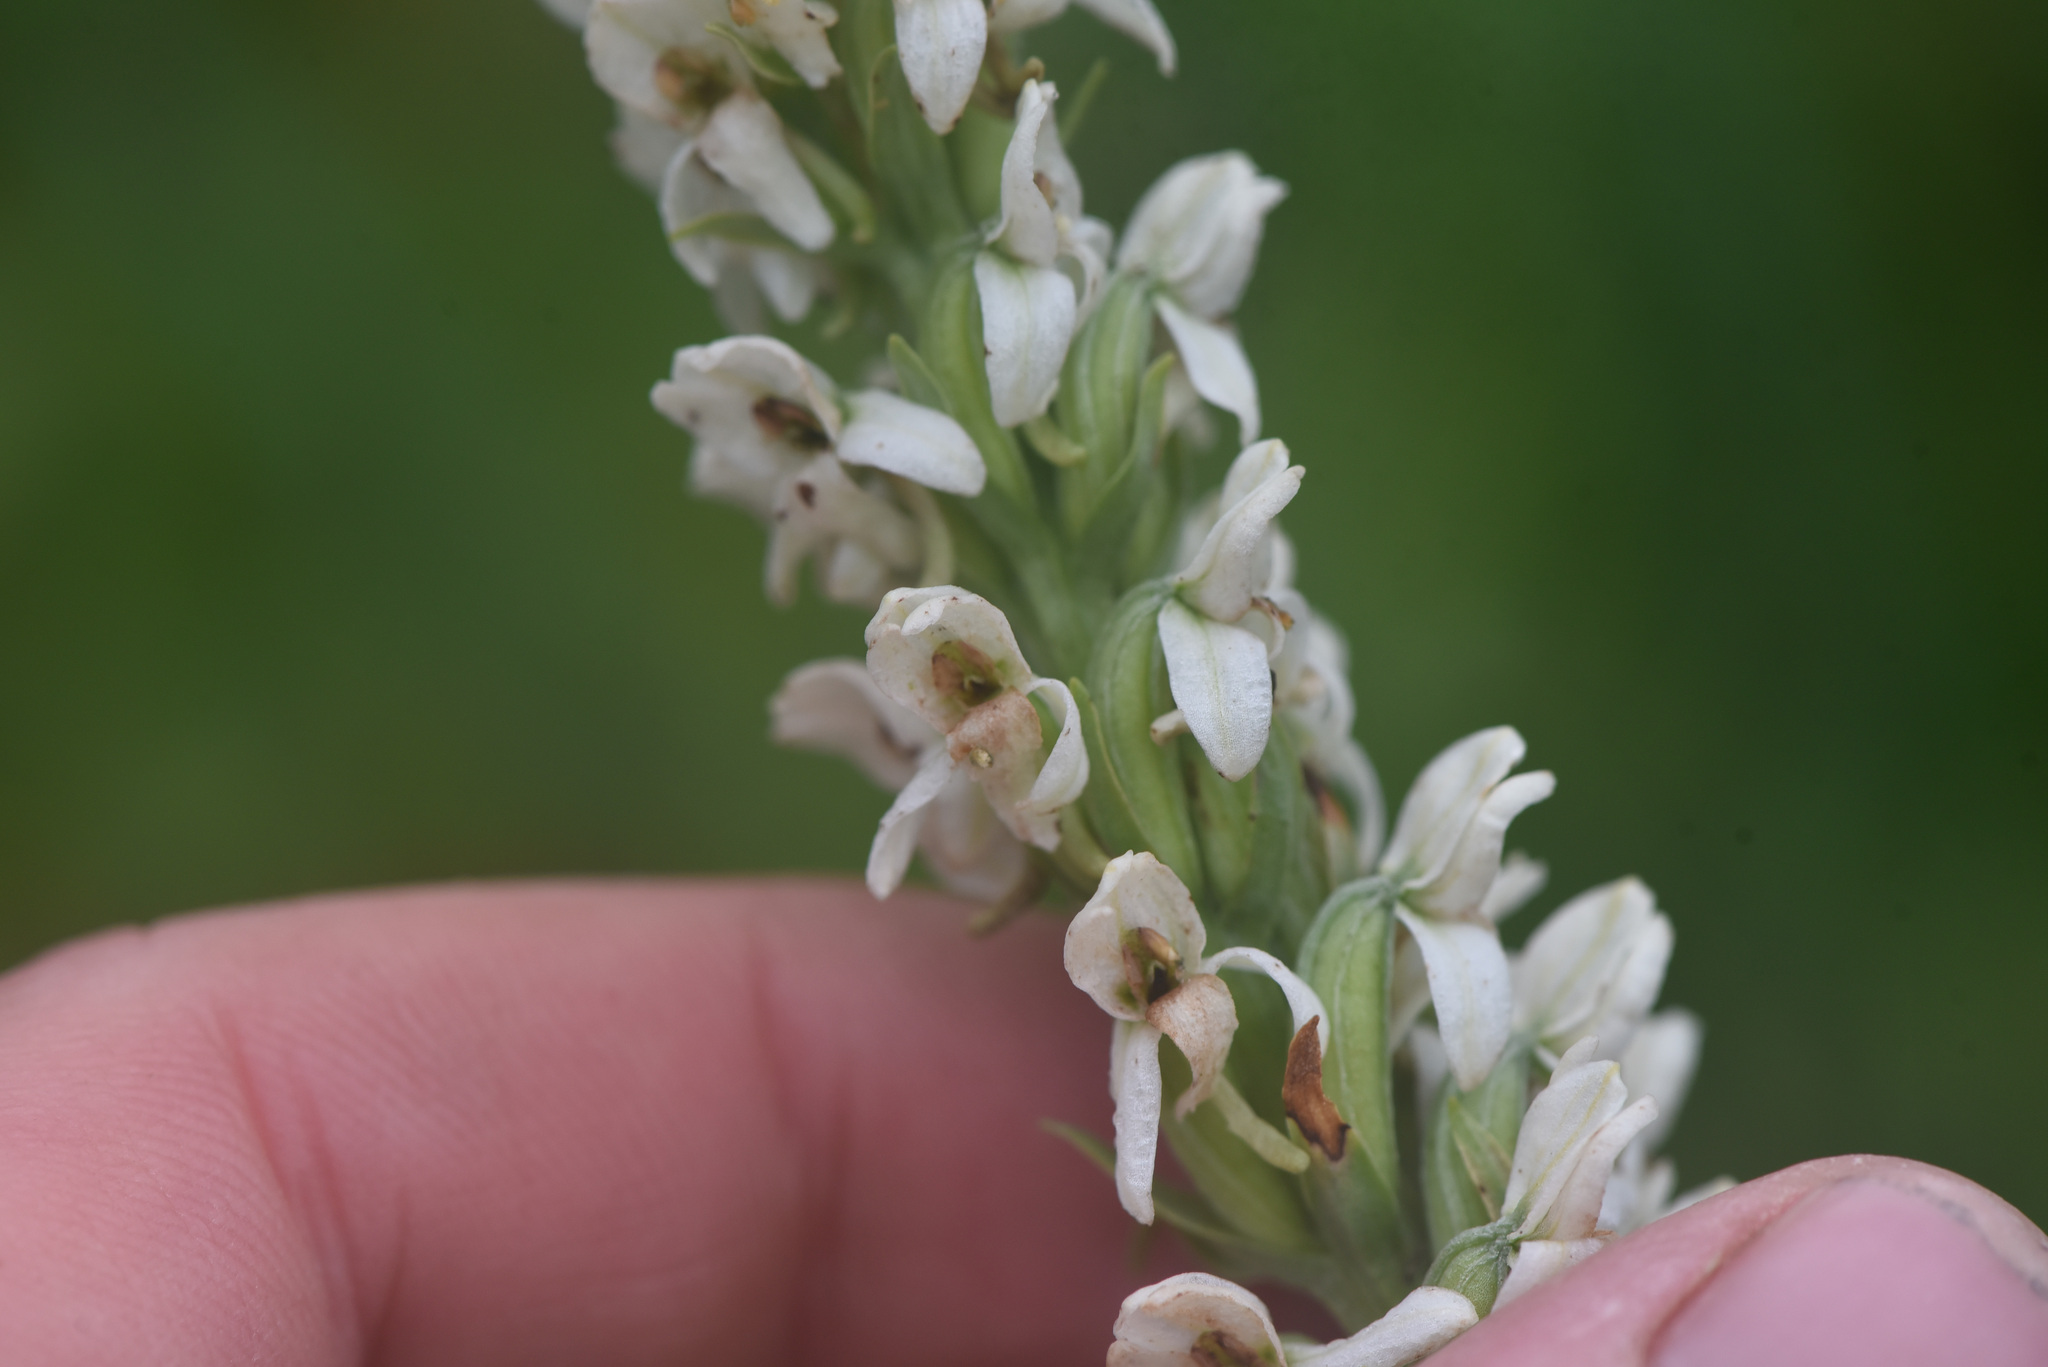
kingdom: Plantae
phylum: Tracheophyta
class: Liliopsida
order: Asparagales
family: Orchidaceae
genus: Platanthera
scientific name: Platanthera dilatata
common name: Bog candles
